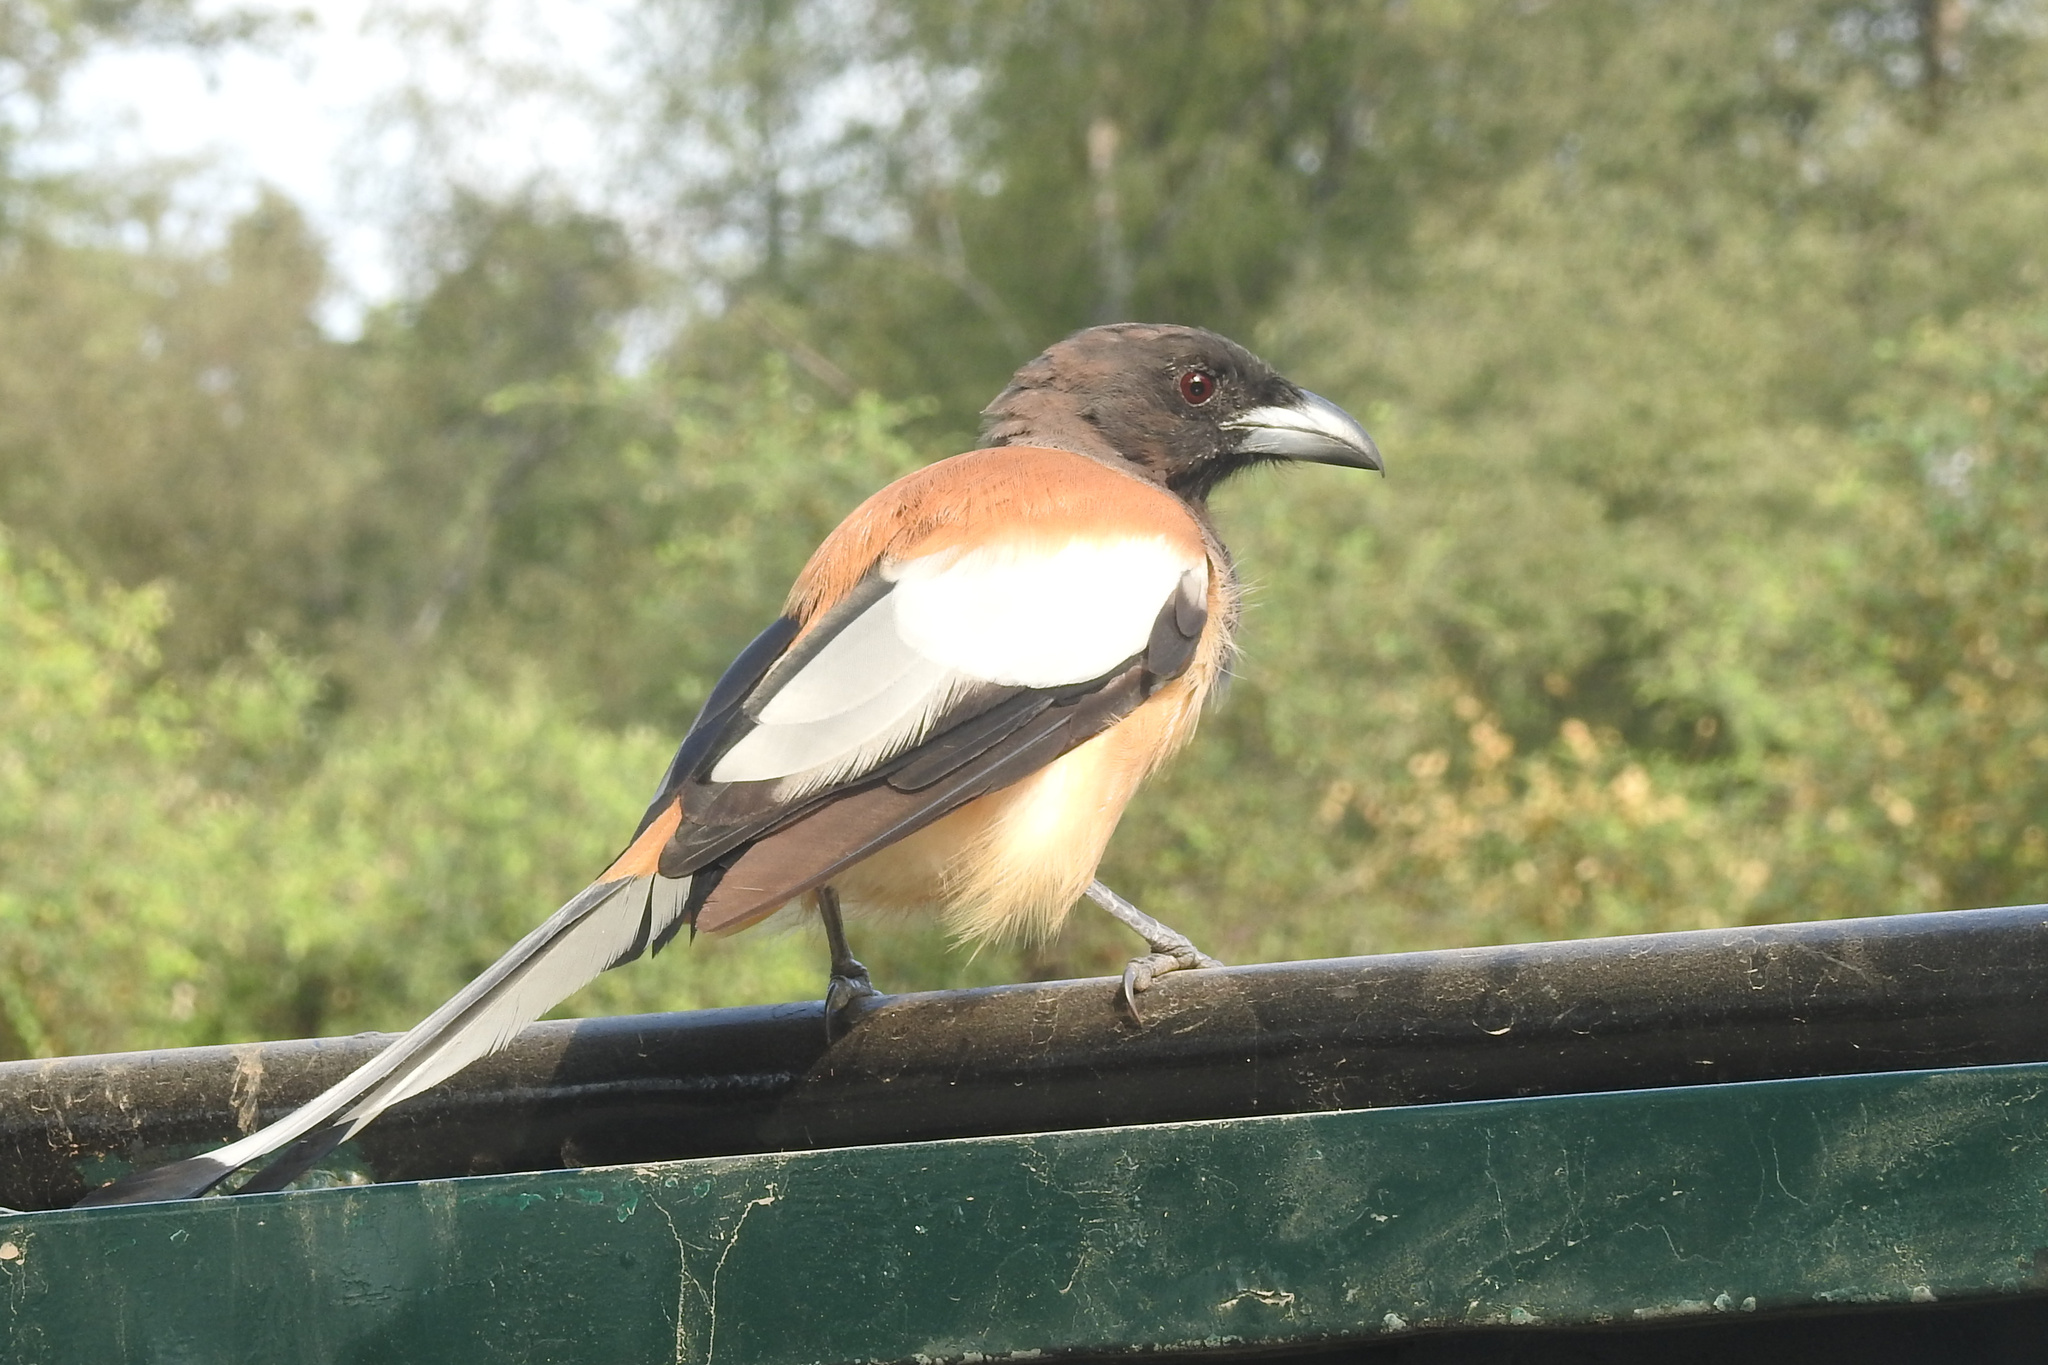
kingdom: Animalia
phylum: Chordata
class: Aves
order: Passeriformes
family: Corvidae
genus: Dendrocitta
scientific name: Dendrocitta vagabunda
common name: Rufous treepie
